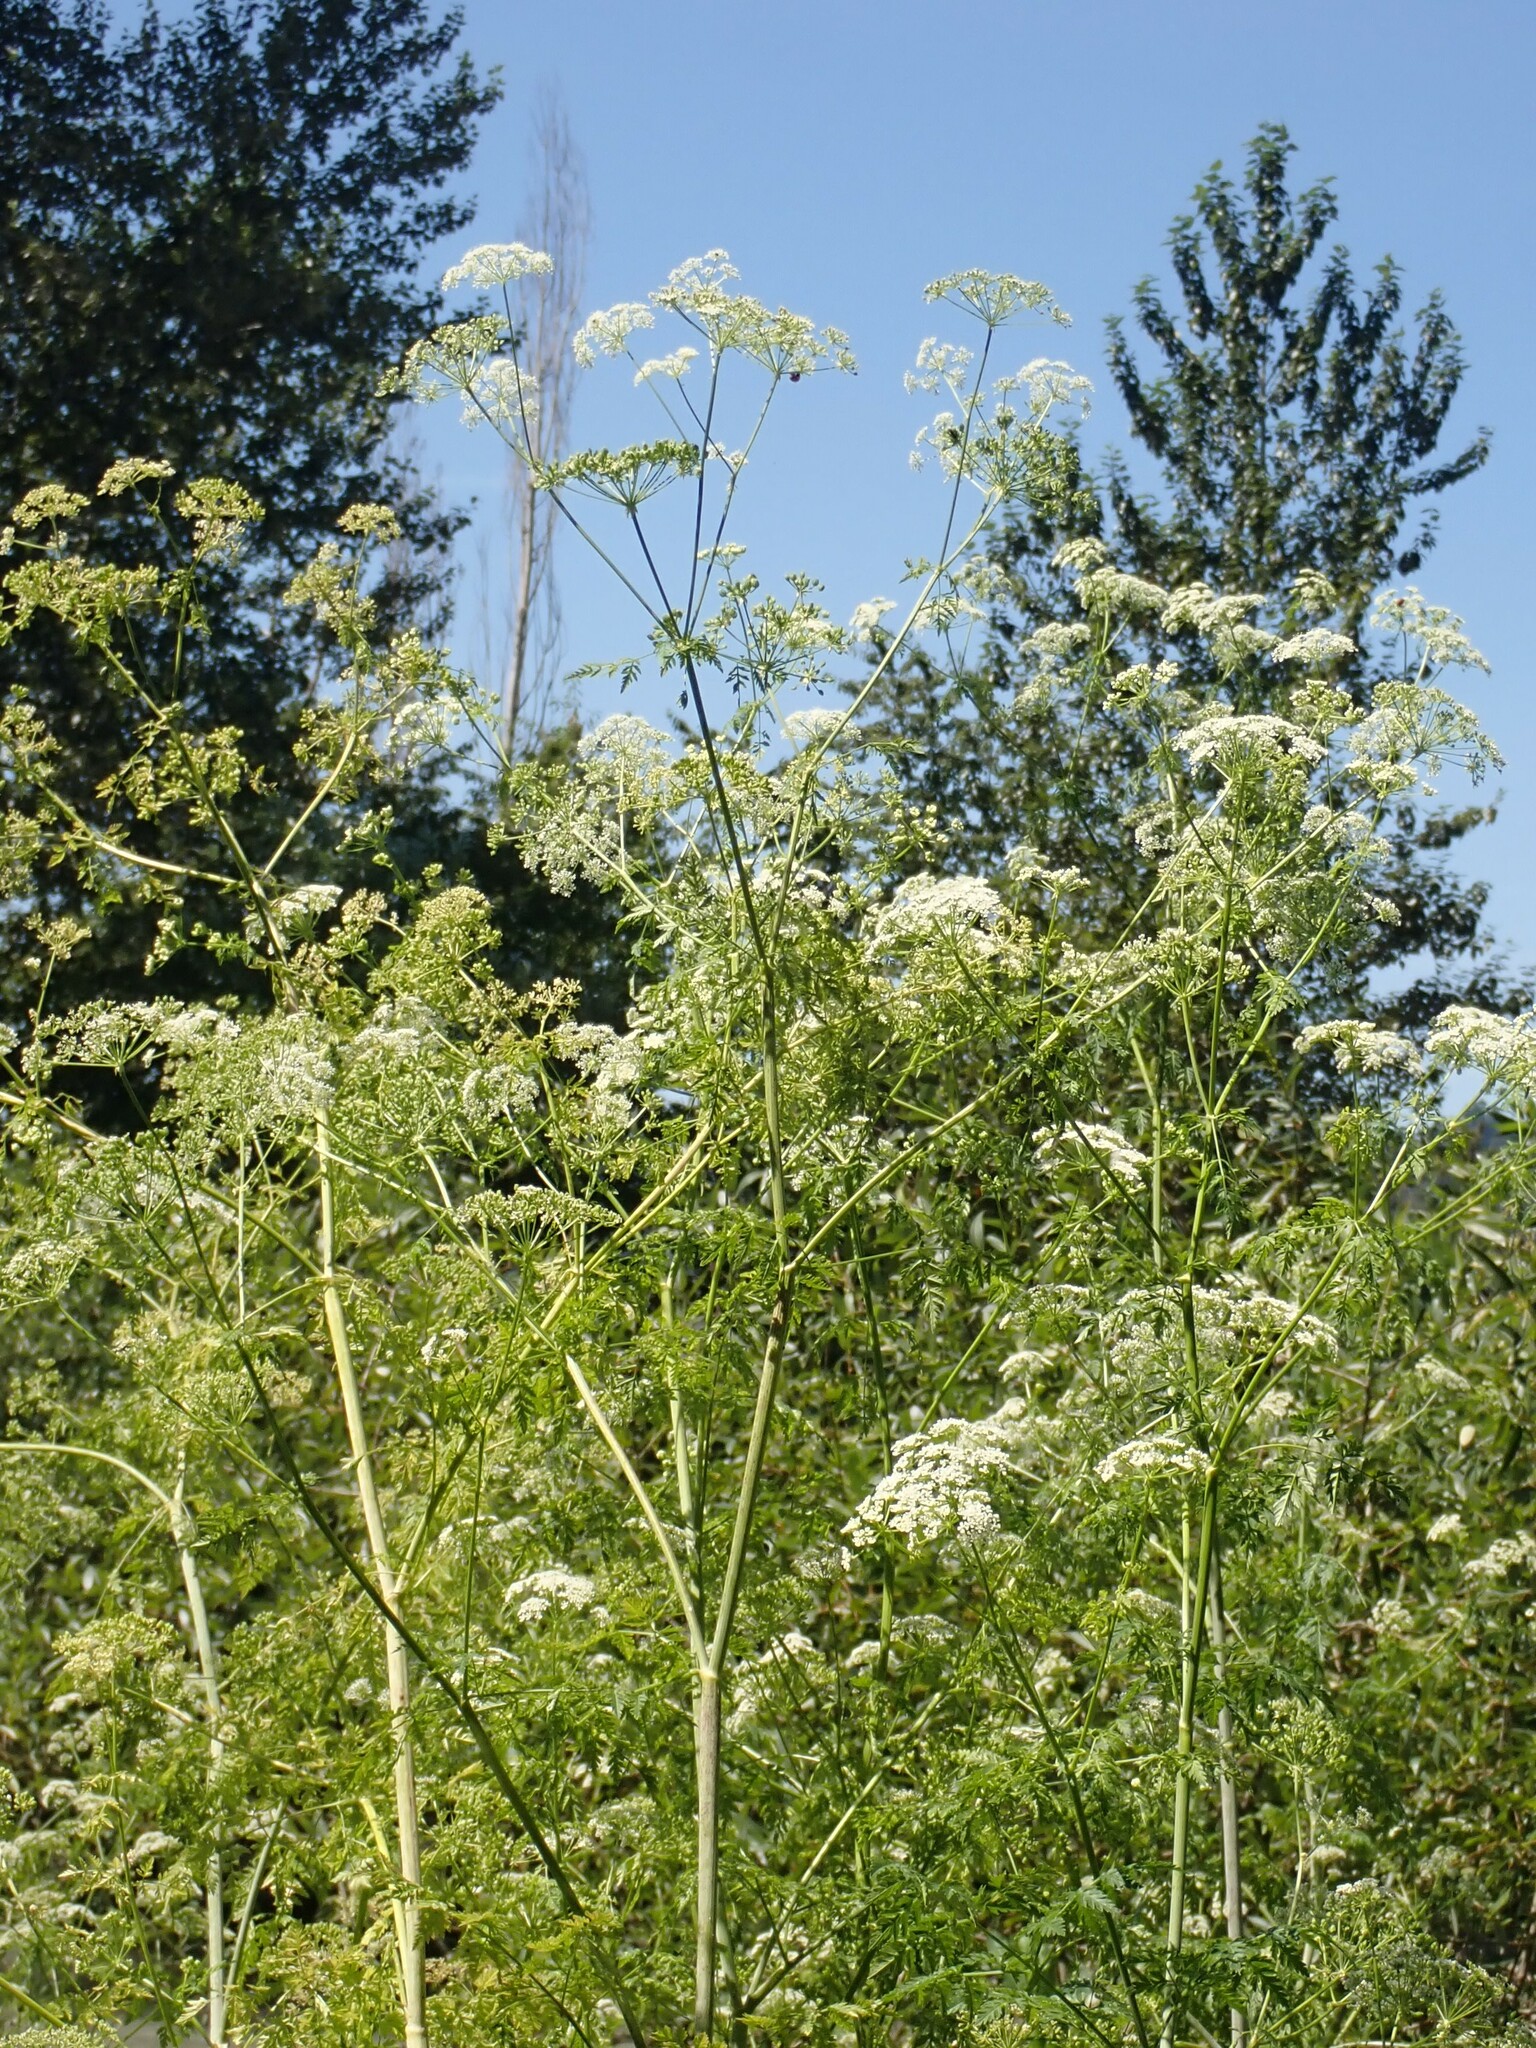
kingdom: Plantae
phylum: Tracheophyta
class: Magnoliopsida
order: Apiales
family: Apiaceae
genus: Conium
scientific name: Conium maculatum
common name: Hemlock
